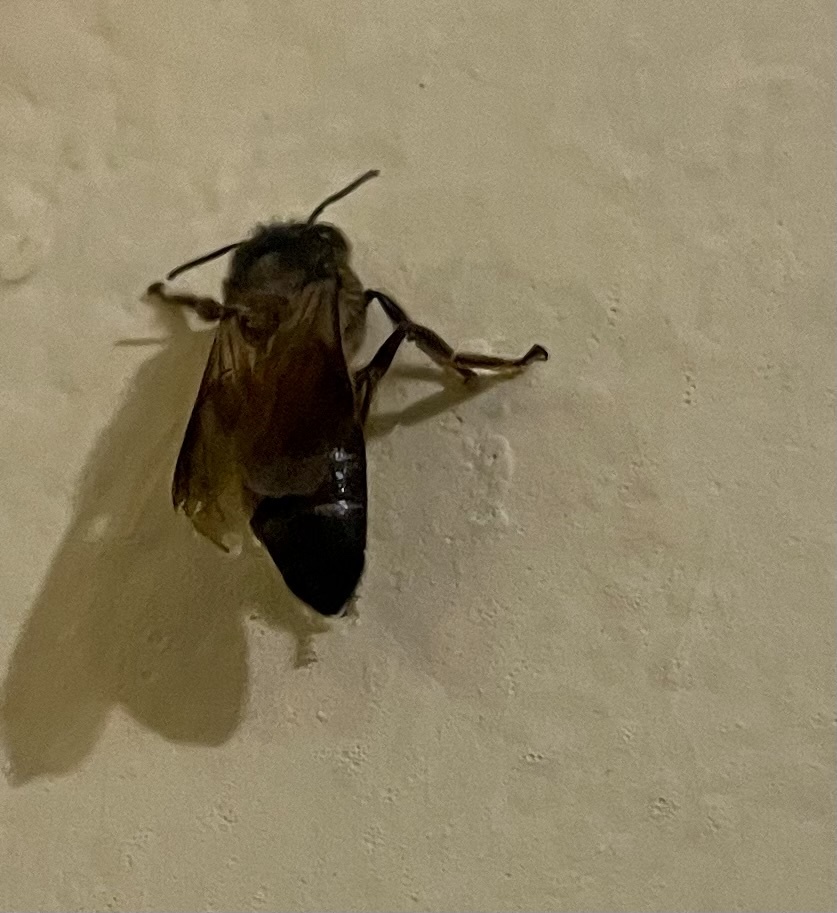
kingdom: Animalia
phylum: Arthropoda
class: Insecta
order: Hymenoptera
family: Apidae
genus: Apis
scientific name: Apis dorsata
